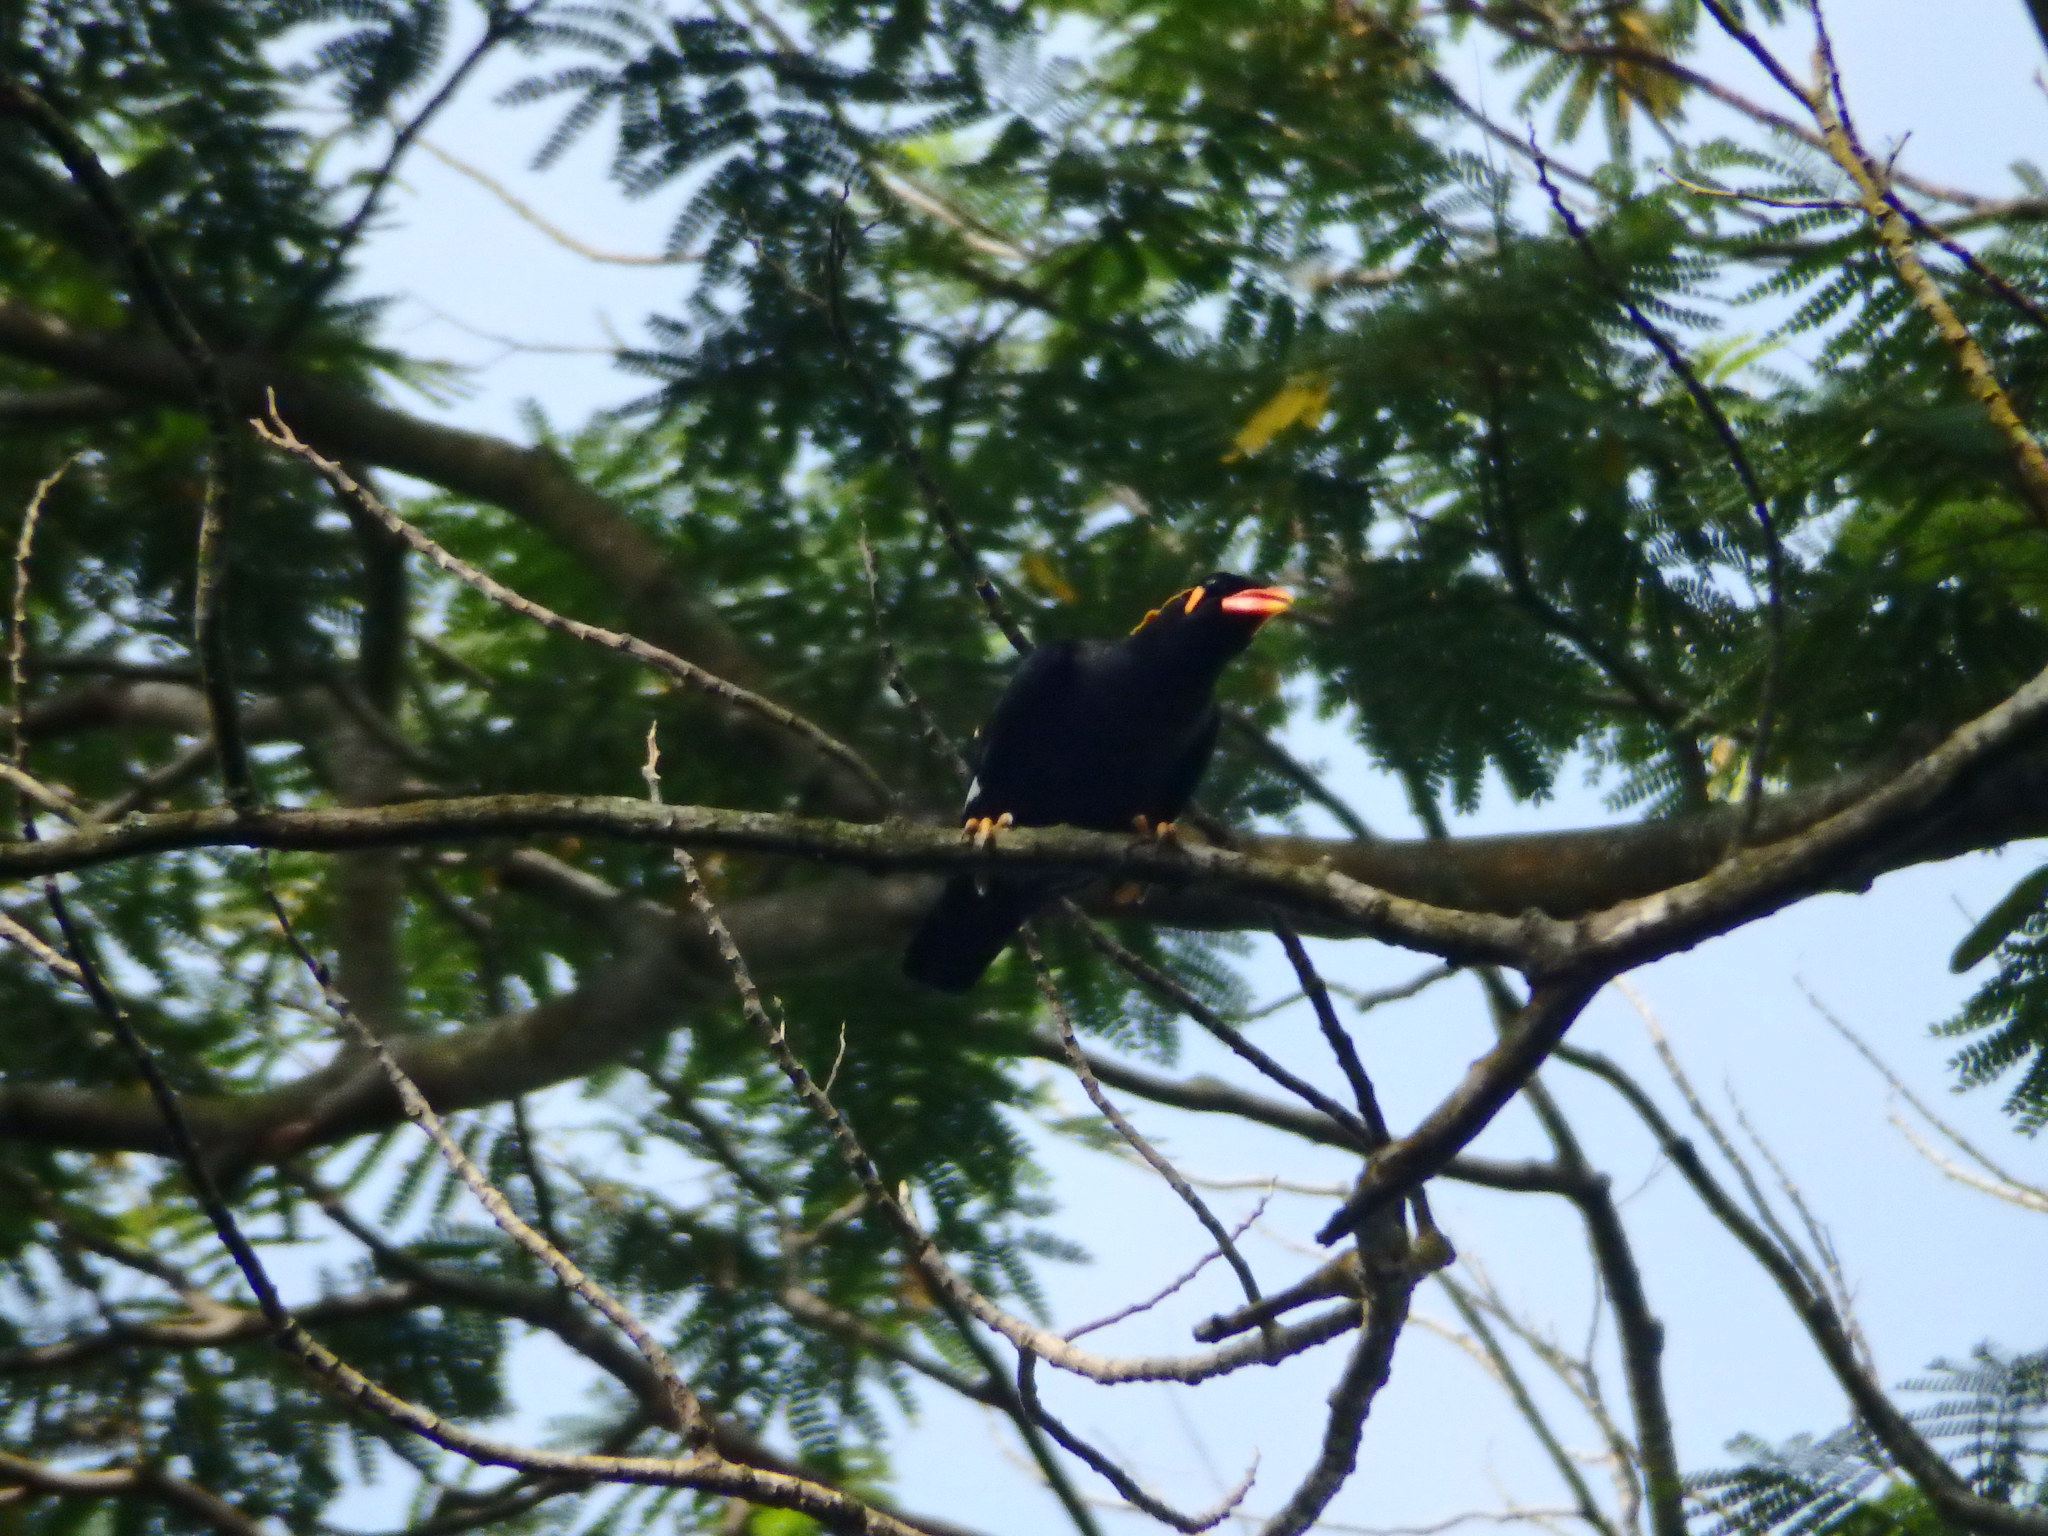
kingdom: Animalia
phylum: Chordata
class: Aves
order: Passeriformes
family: Sturnidae
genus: Gracula
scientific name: Gracula religiosa
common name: Common hill myna
